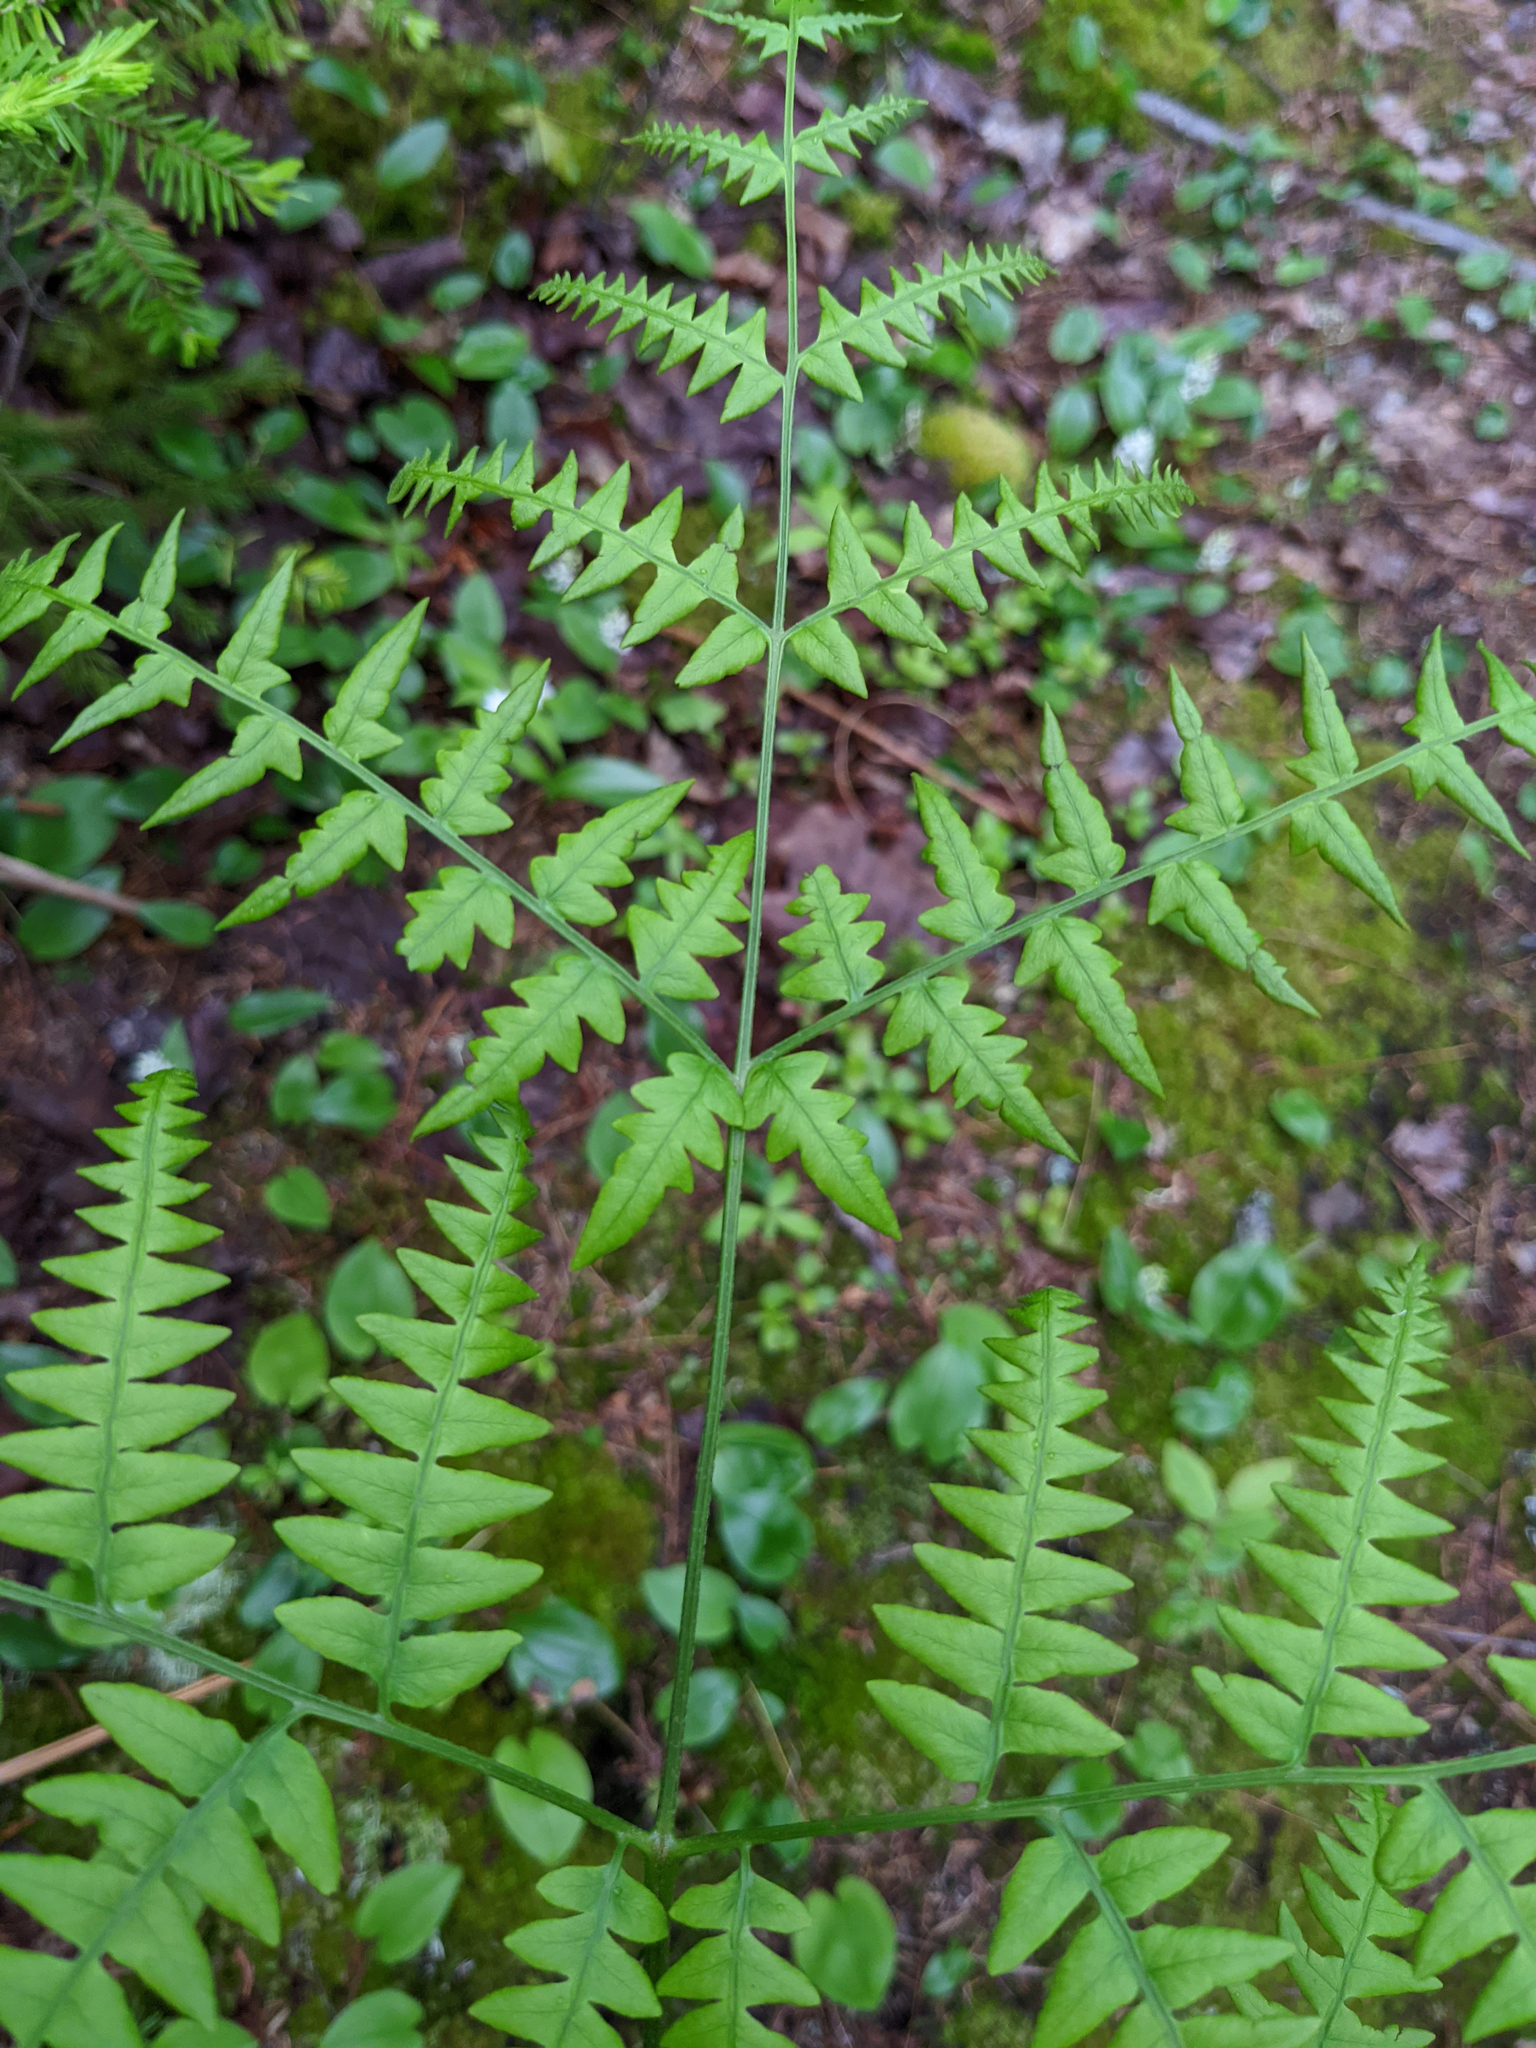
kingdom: Plantae
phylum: Tracheophyta
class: Polypodiopsida
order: Polypodiales
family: Dennstaedtiaceae
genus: Pteridium
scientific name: Pteridium aquilinum
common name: Bracken
